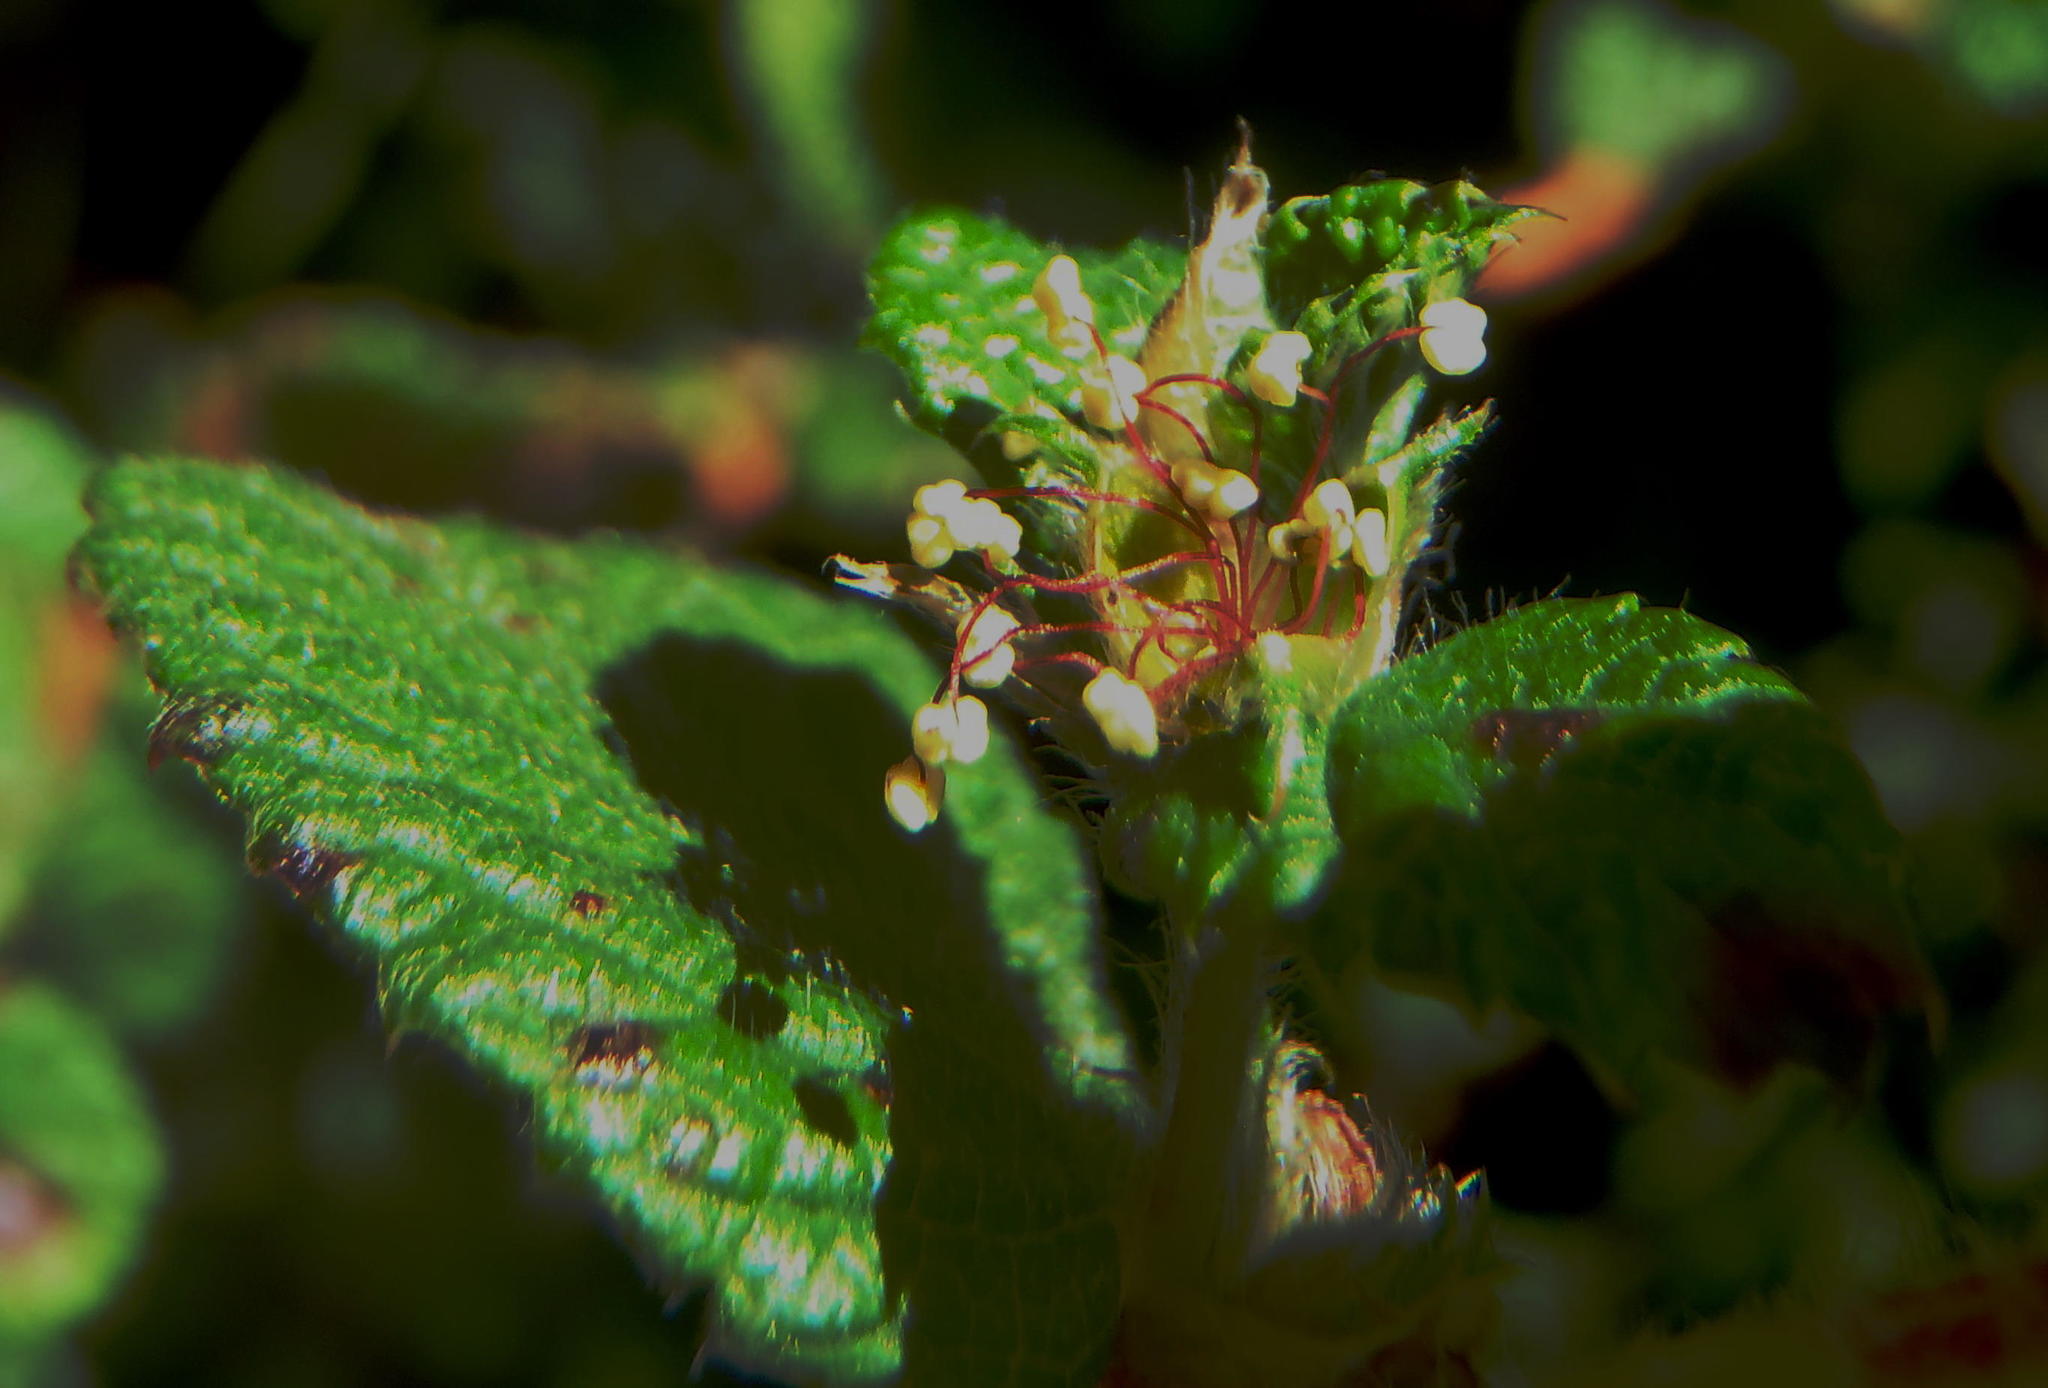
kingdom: Plantae
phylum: Tracheophyta
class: Magnoliopsida
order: Rosales
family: Rosaceae
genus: Cliffortia
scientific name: Cliffortia odorata
